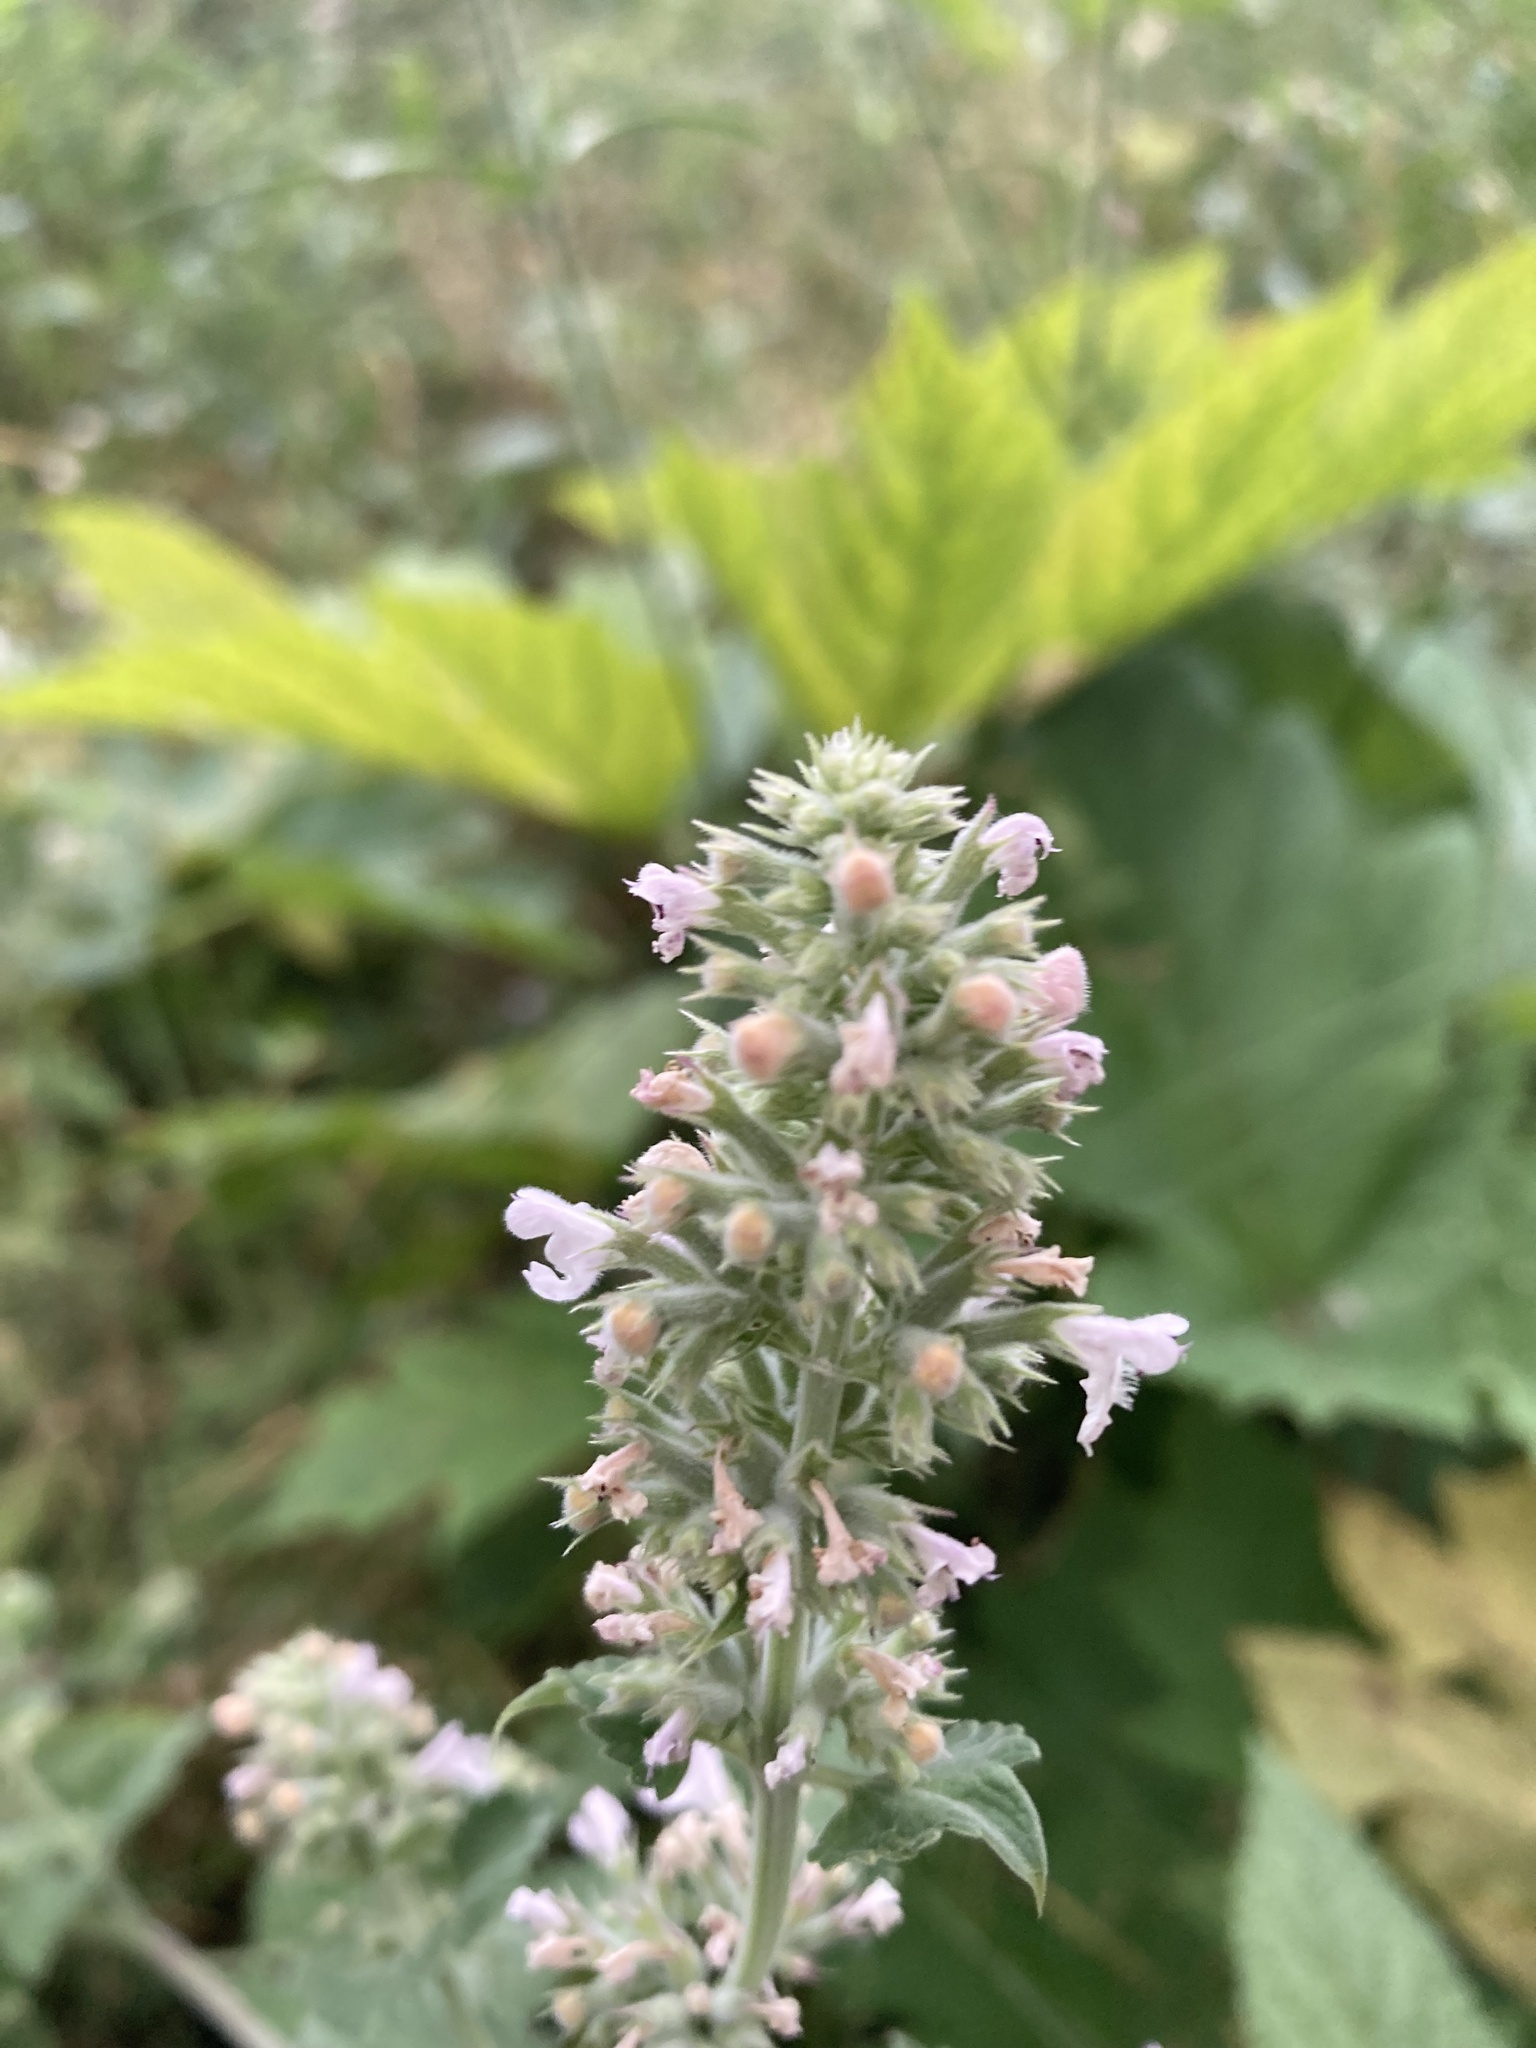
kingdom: Plantae
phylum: Tracheophyta
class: Magnoliopsida
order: Lamiales
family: Lamiaceae
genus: Nepeta
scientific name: Nepeta cataria
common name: Catnip
